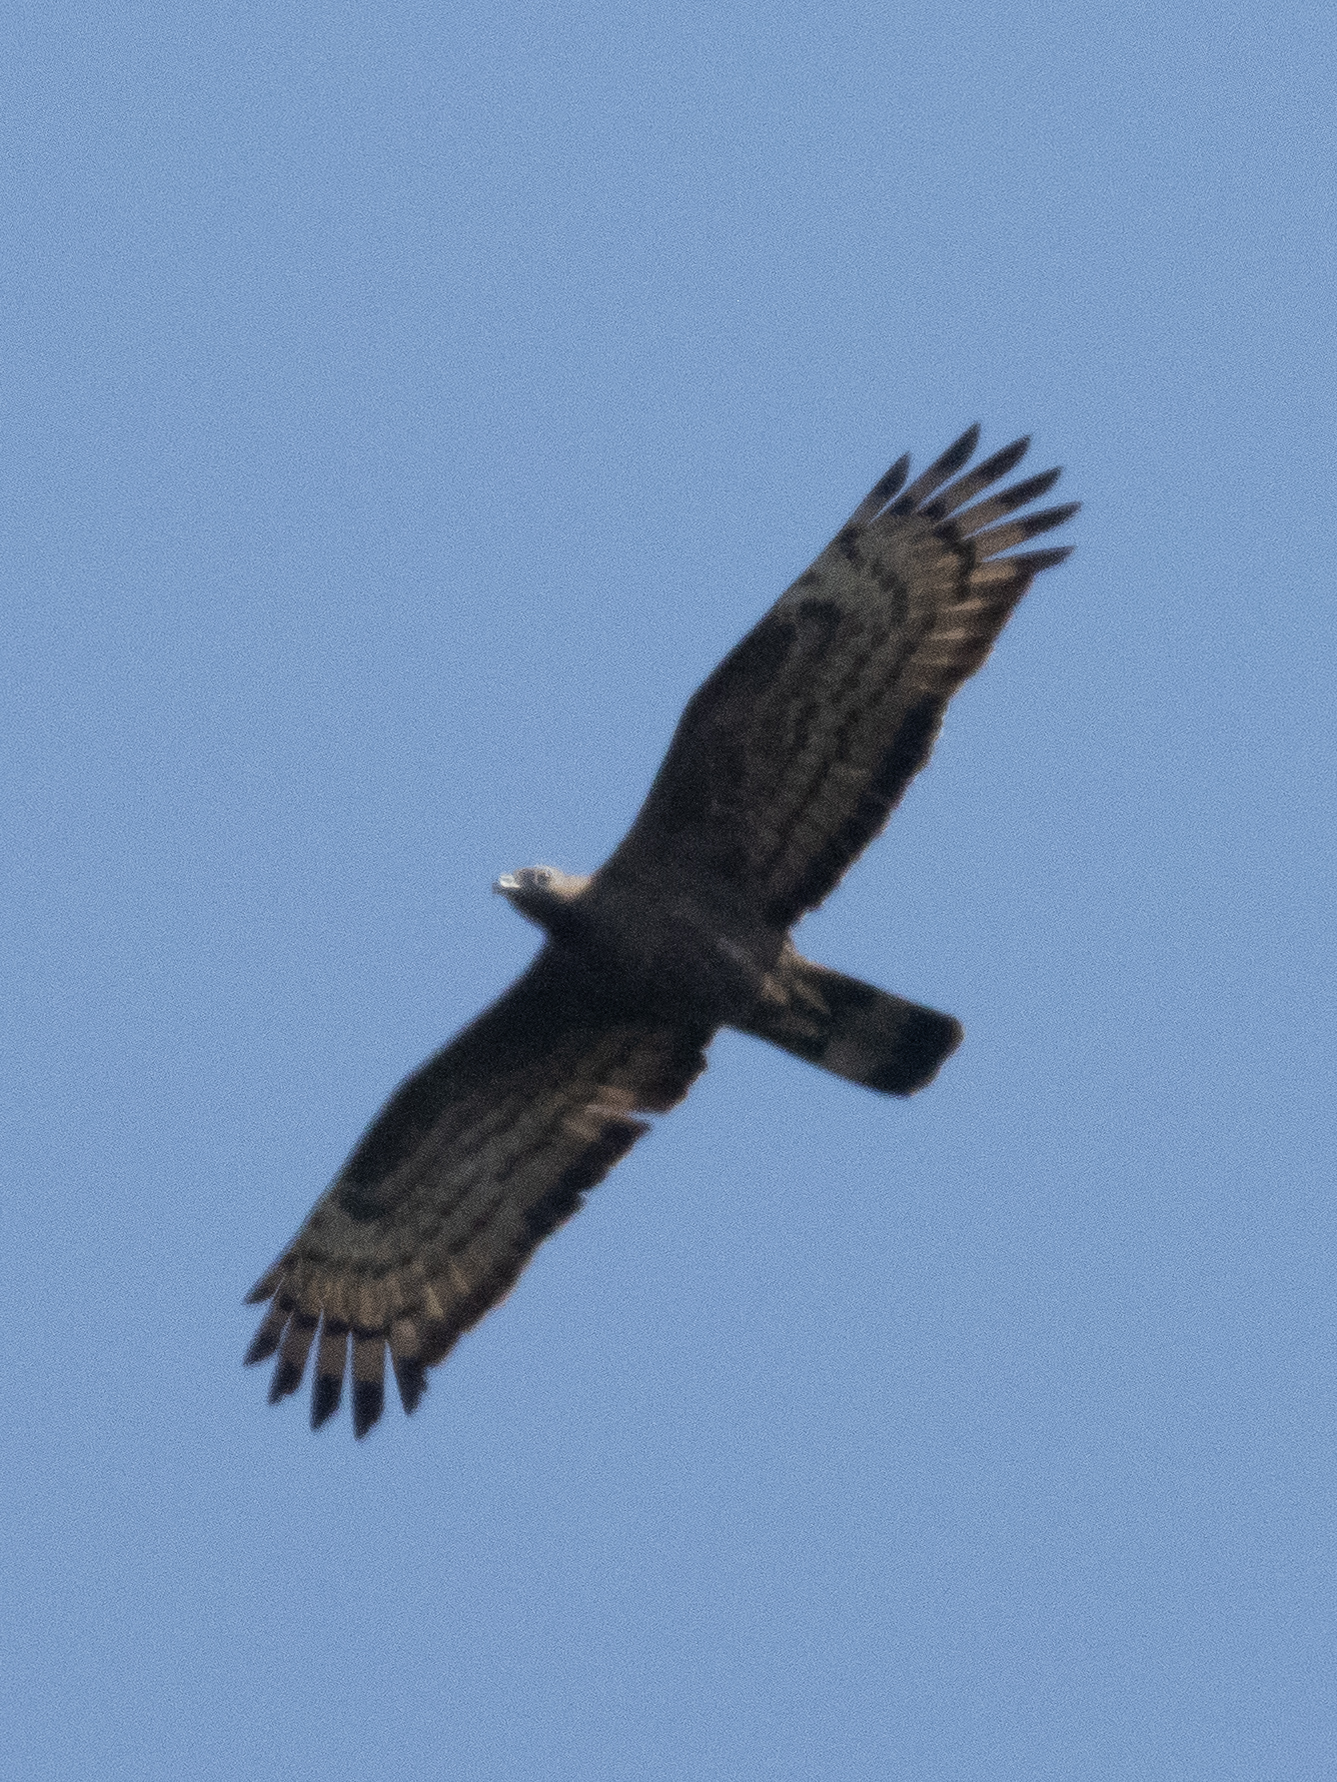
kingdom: Animalia
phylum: Chordata
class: Aves
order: Accipitriformes
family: Accipitridae
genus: Pernis
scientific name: Pernis ptilorhynchus
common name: Crested honey buzzard
